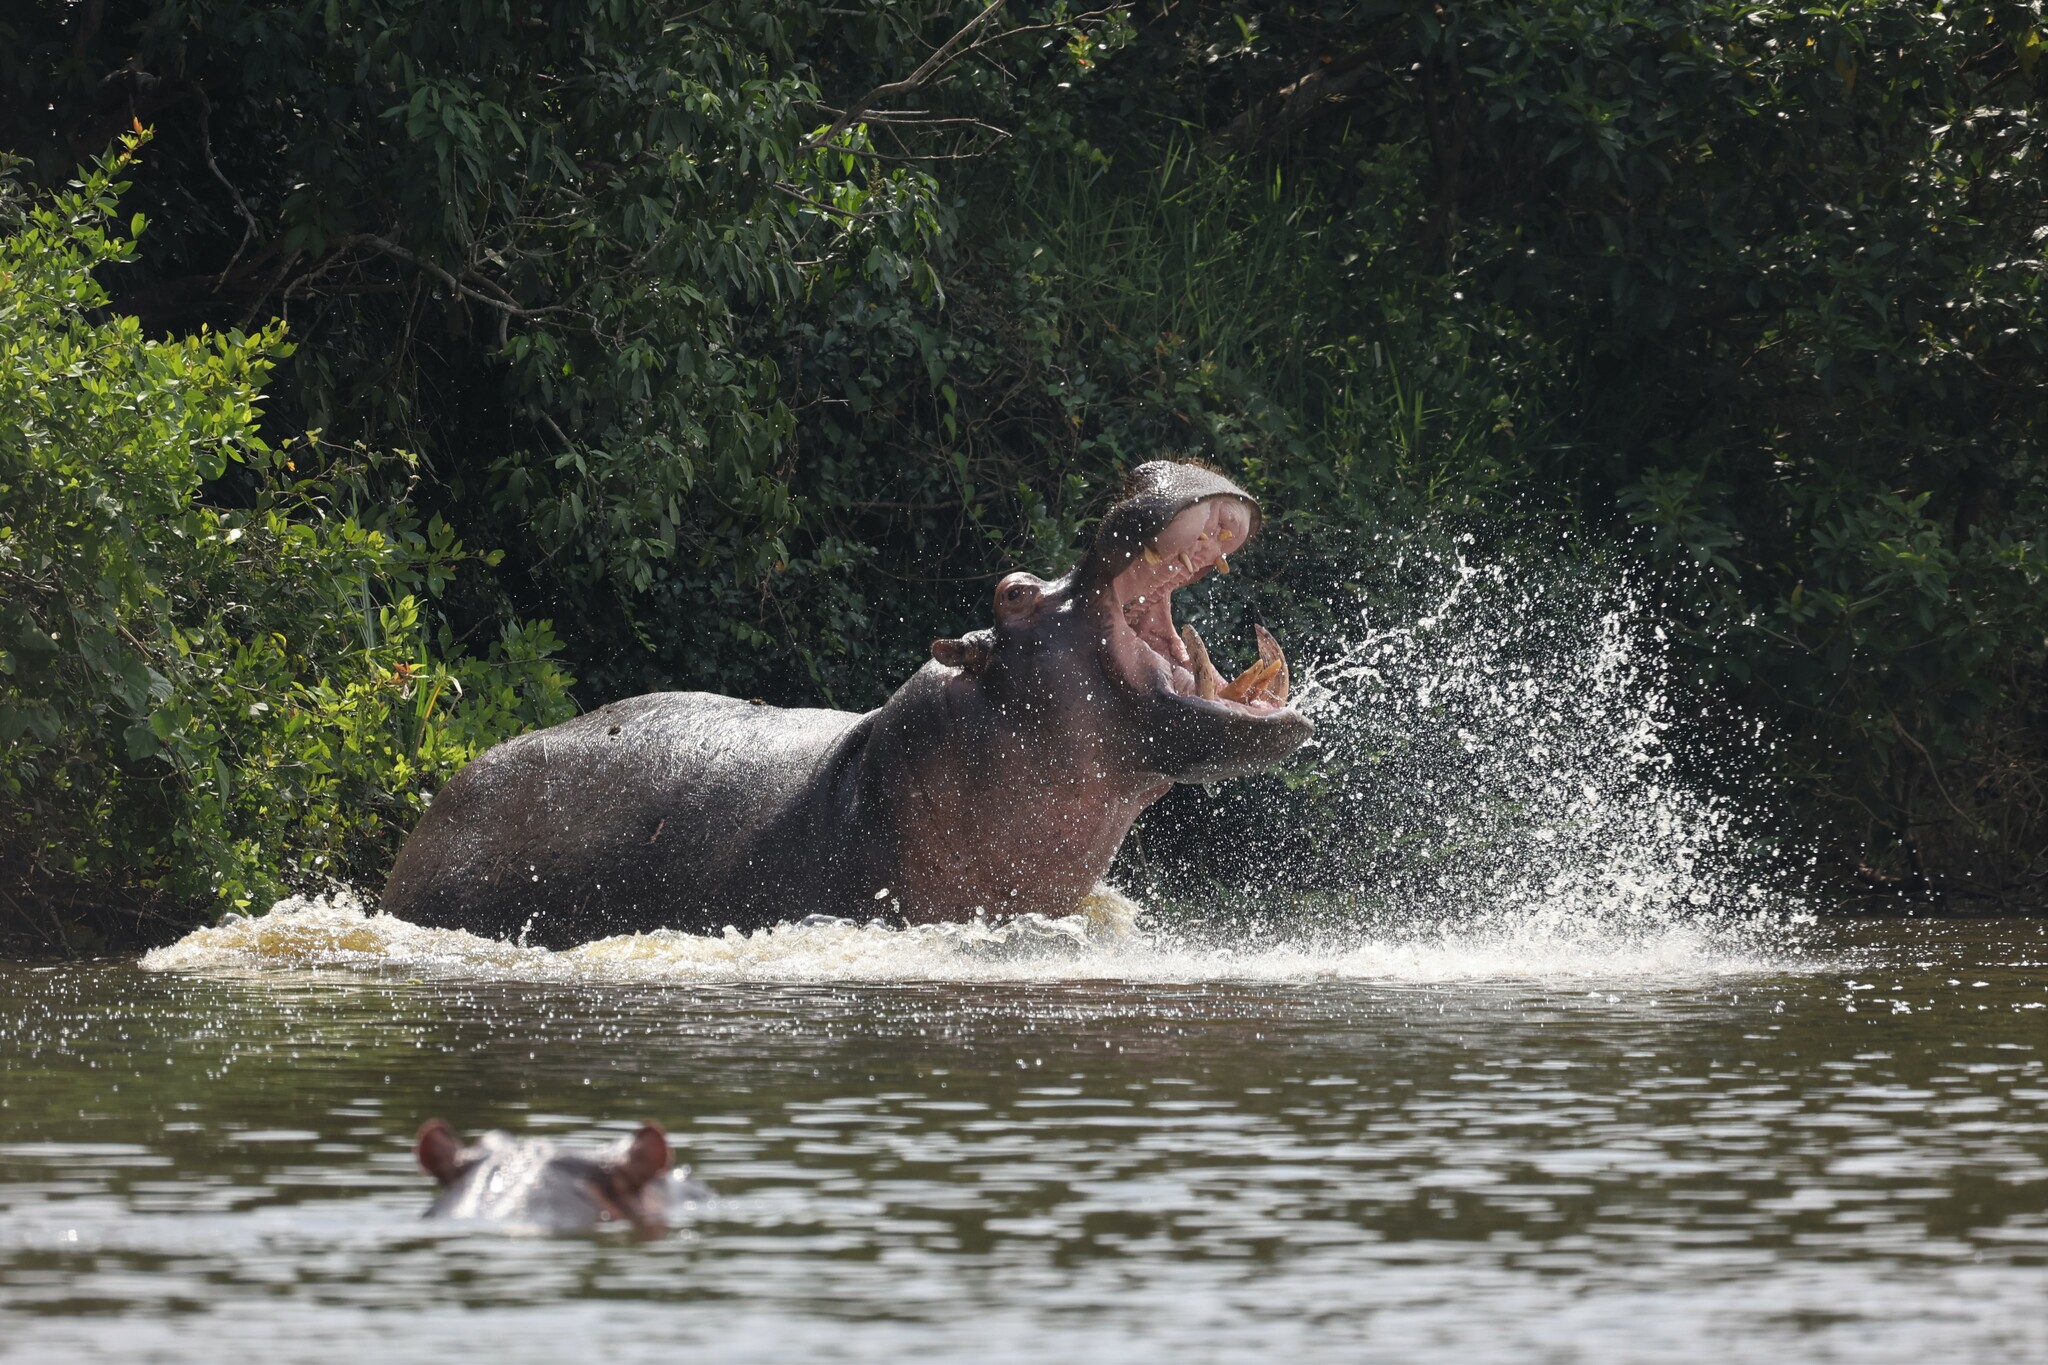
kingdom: Animalia
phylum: Chordata
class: Mammalia
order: Artiodactyla
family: Hippopotamidae
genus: Hippopotamus
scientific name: Hippopotamus amphibius
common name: Common hippopotamus
